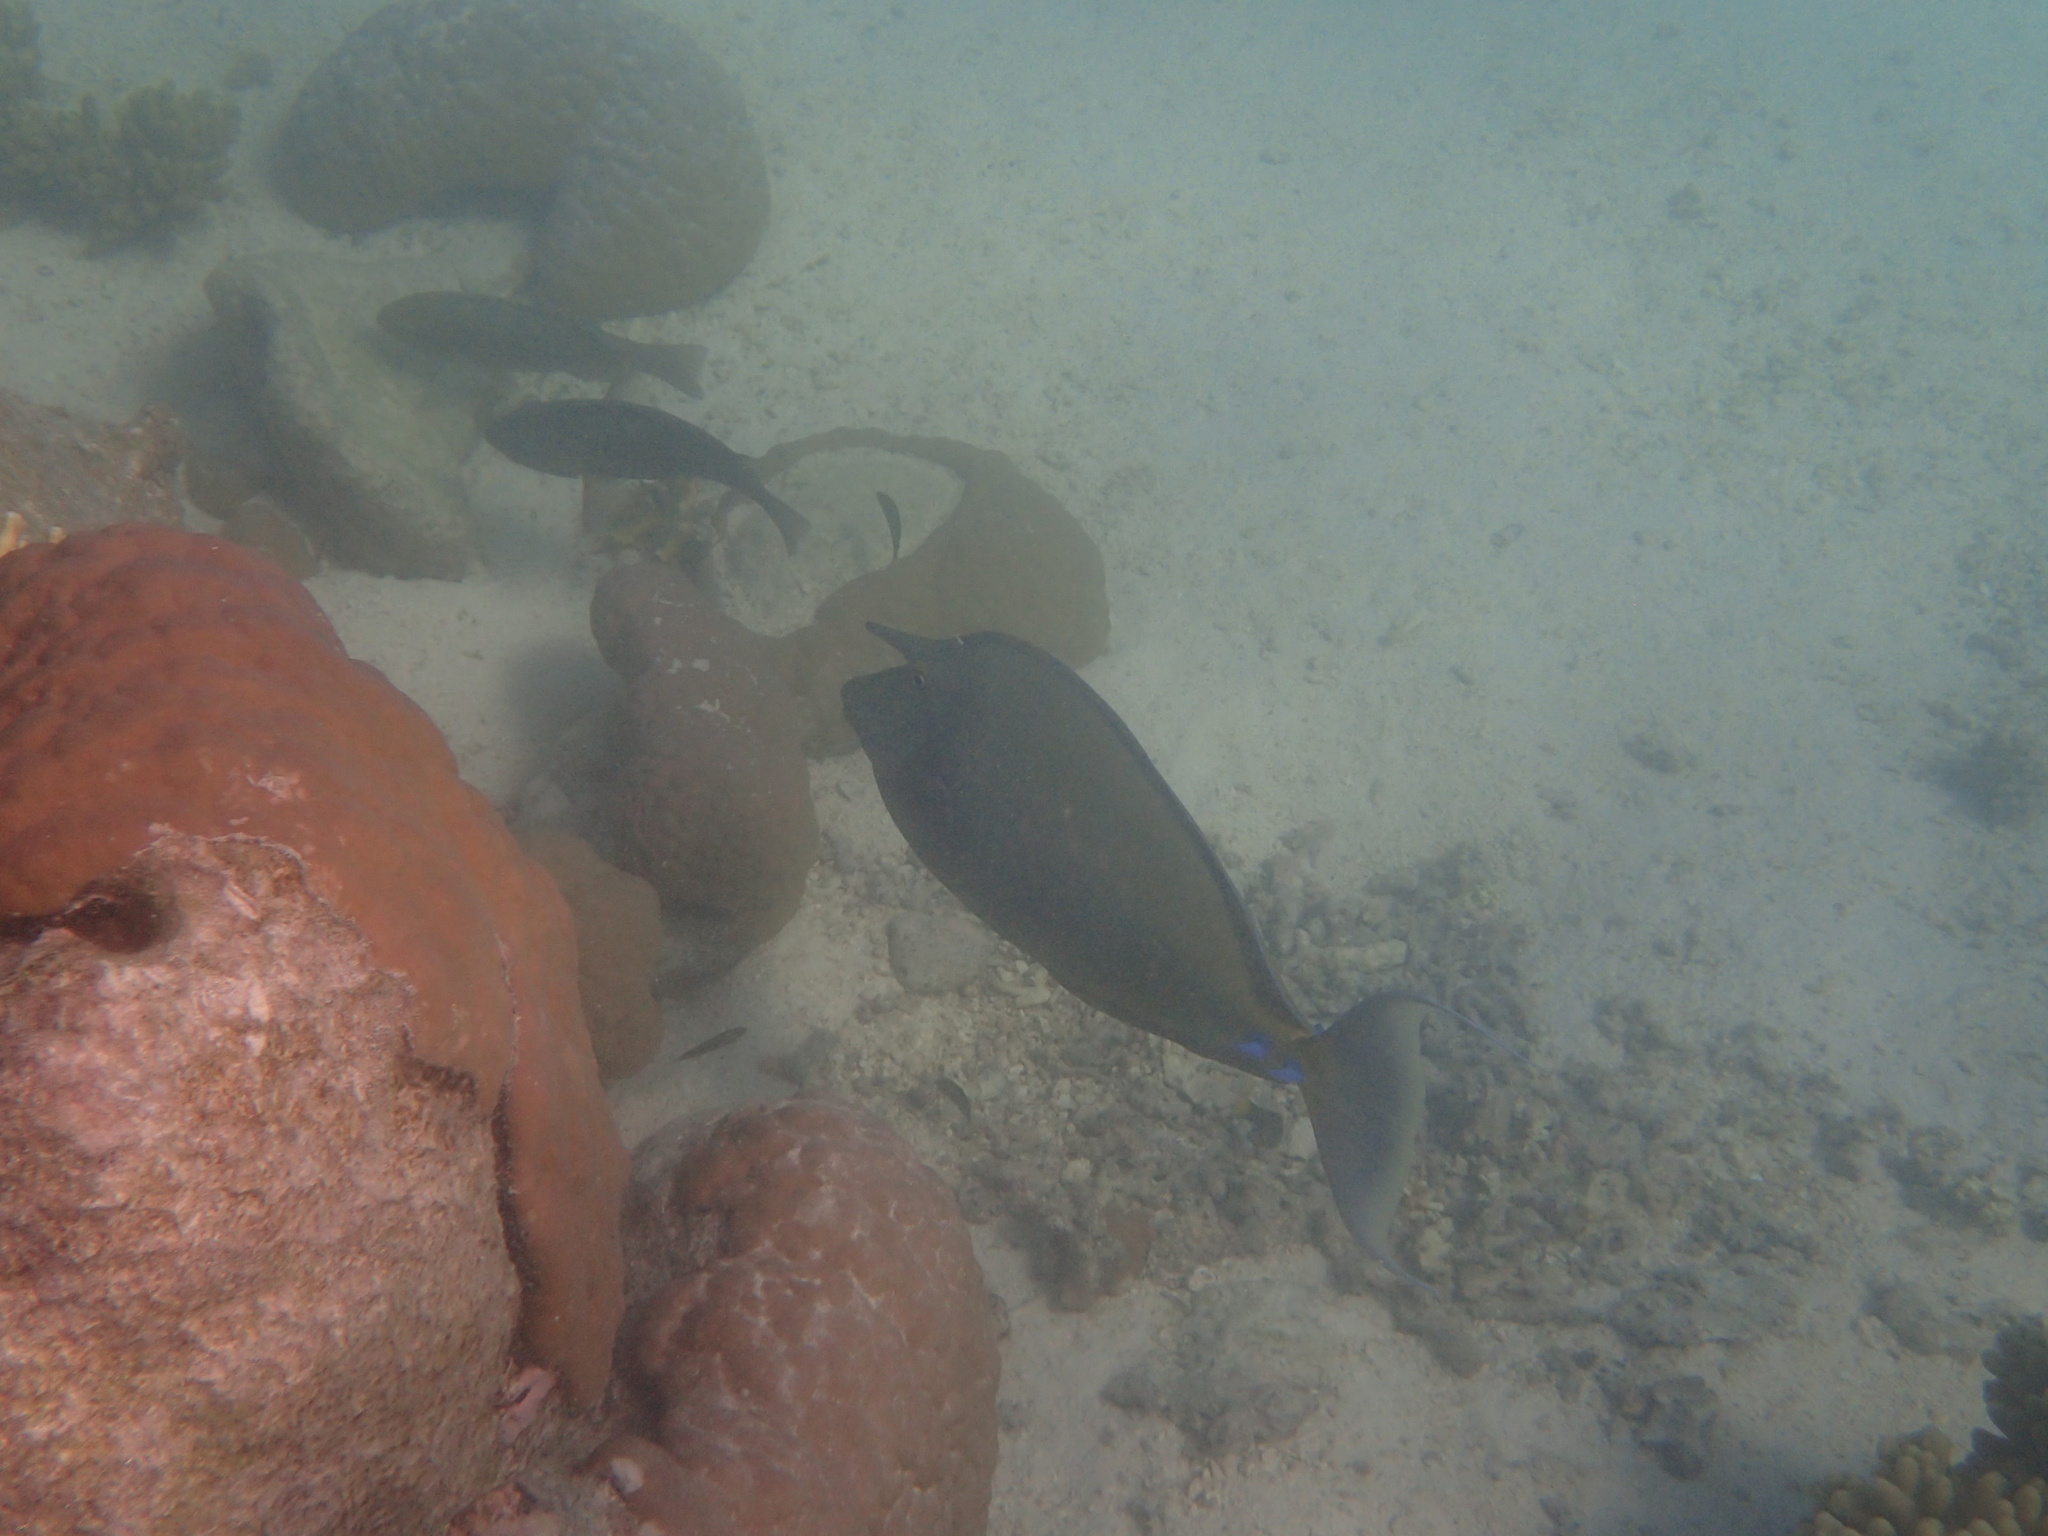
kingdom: Animalia
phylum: Chordata
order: Perciformes
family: Acanthuridae
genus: Naso
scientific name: Naso unicornis
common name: Bluespine unicornfish
